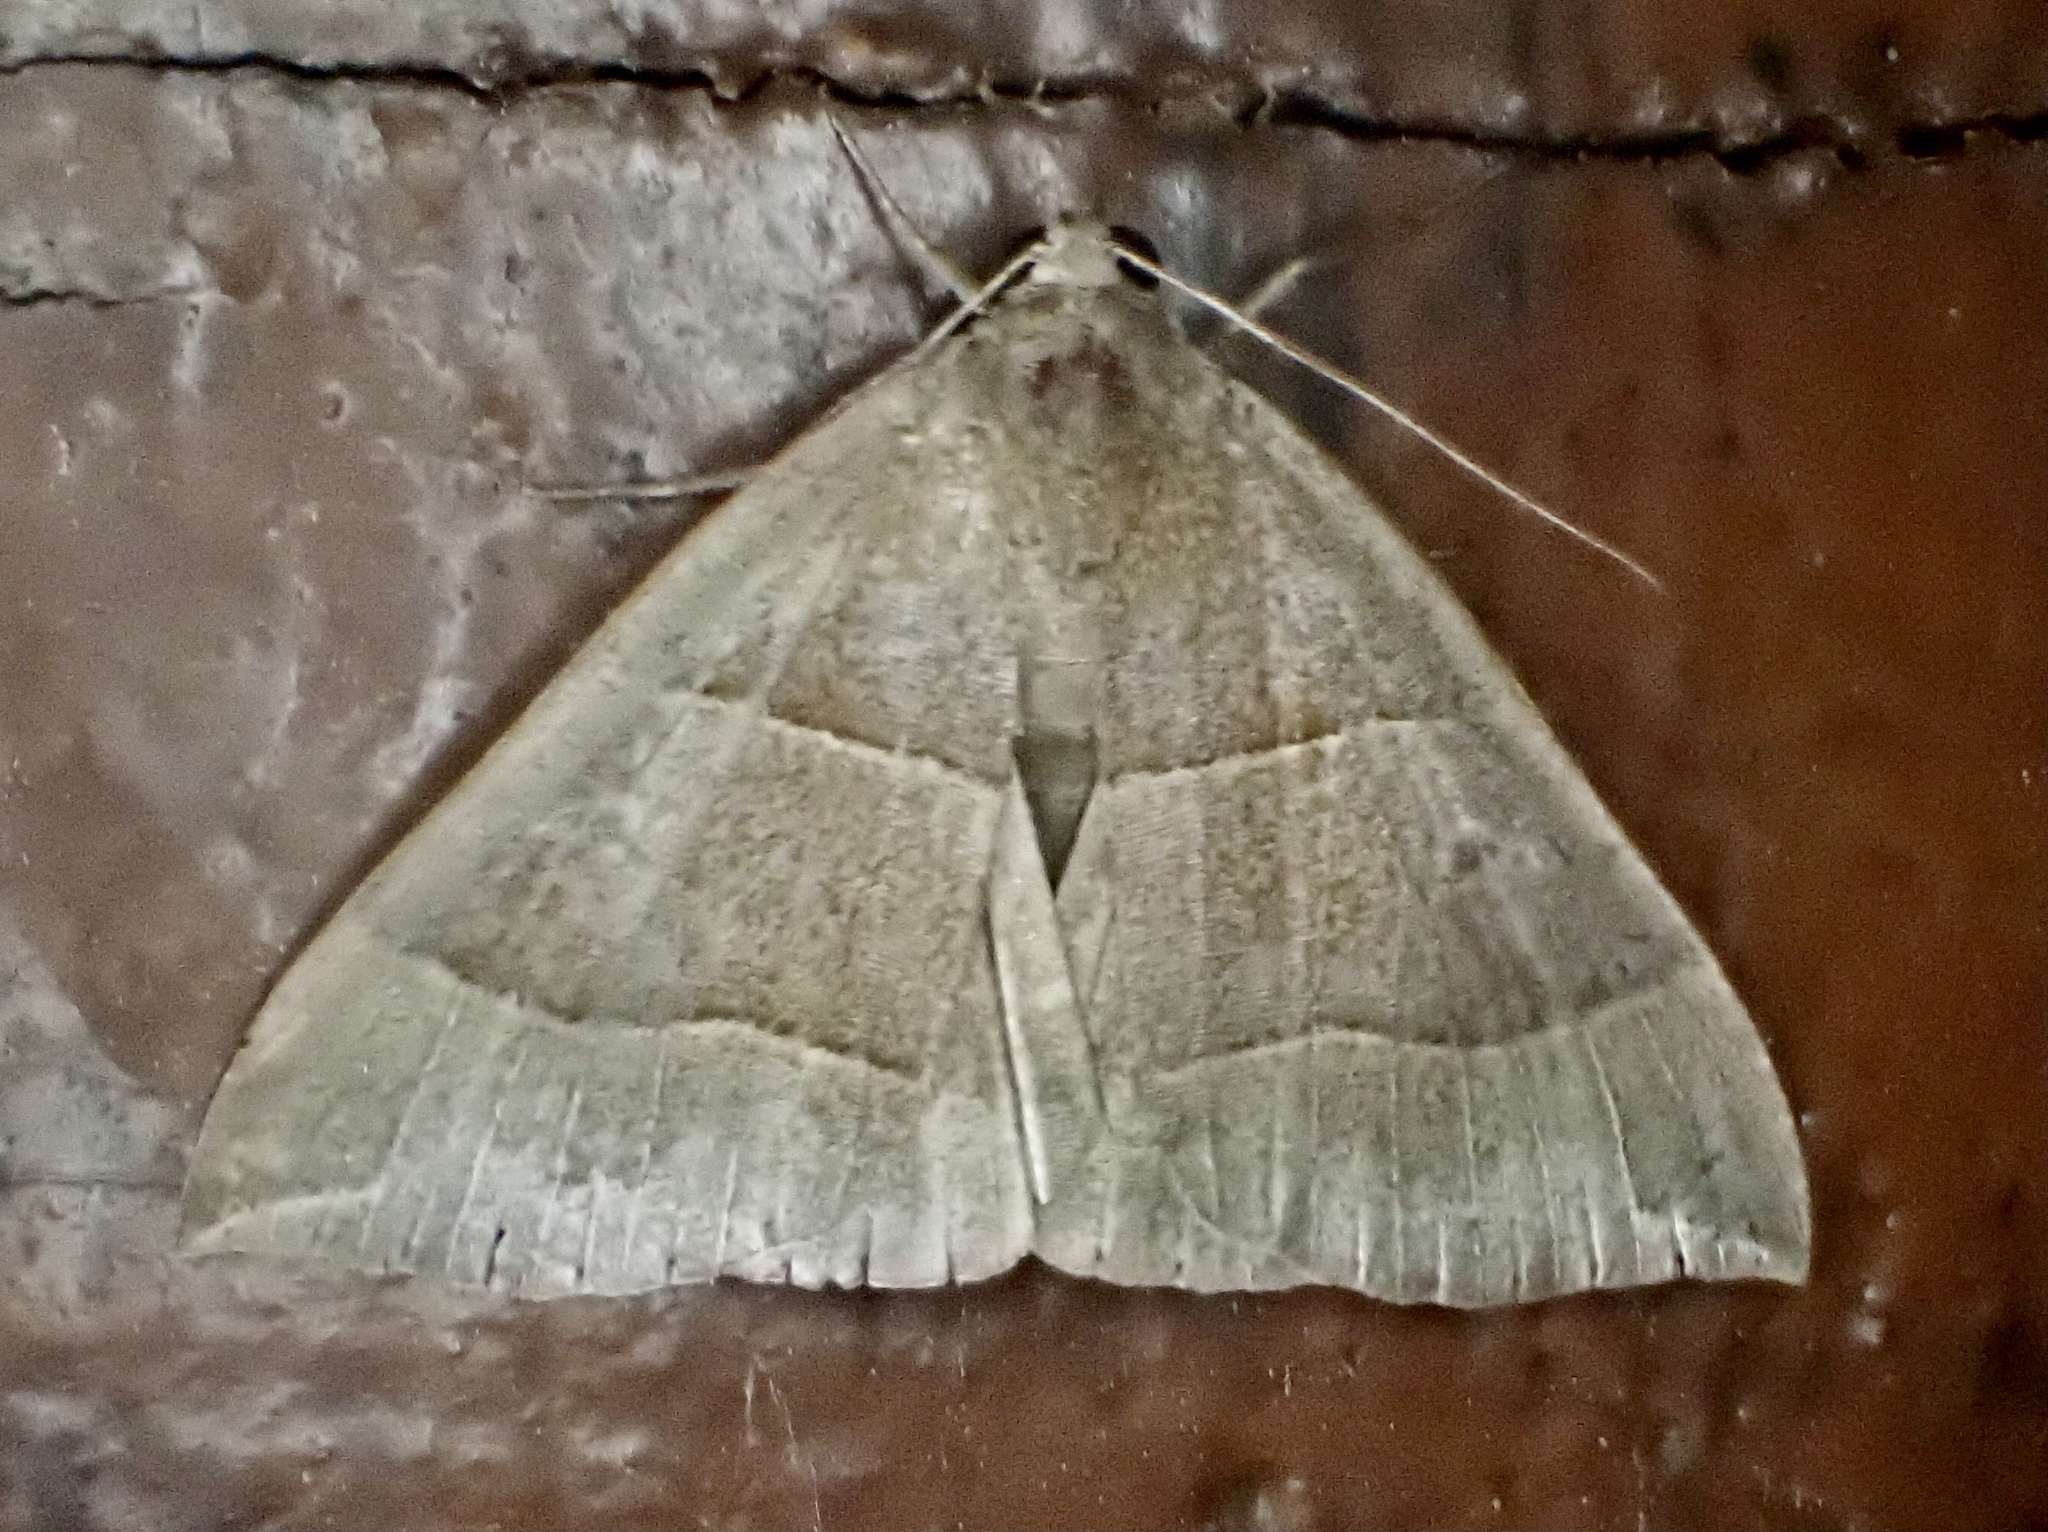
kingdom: Animalia
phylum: Arthropoda
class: Insecta
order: Lepidoptera
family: Erebidae
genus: Parallelia
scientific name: Parallelia bistriaris
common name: Maple looper moth
